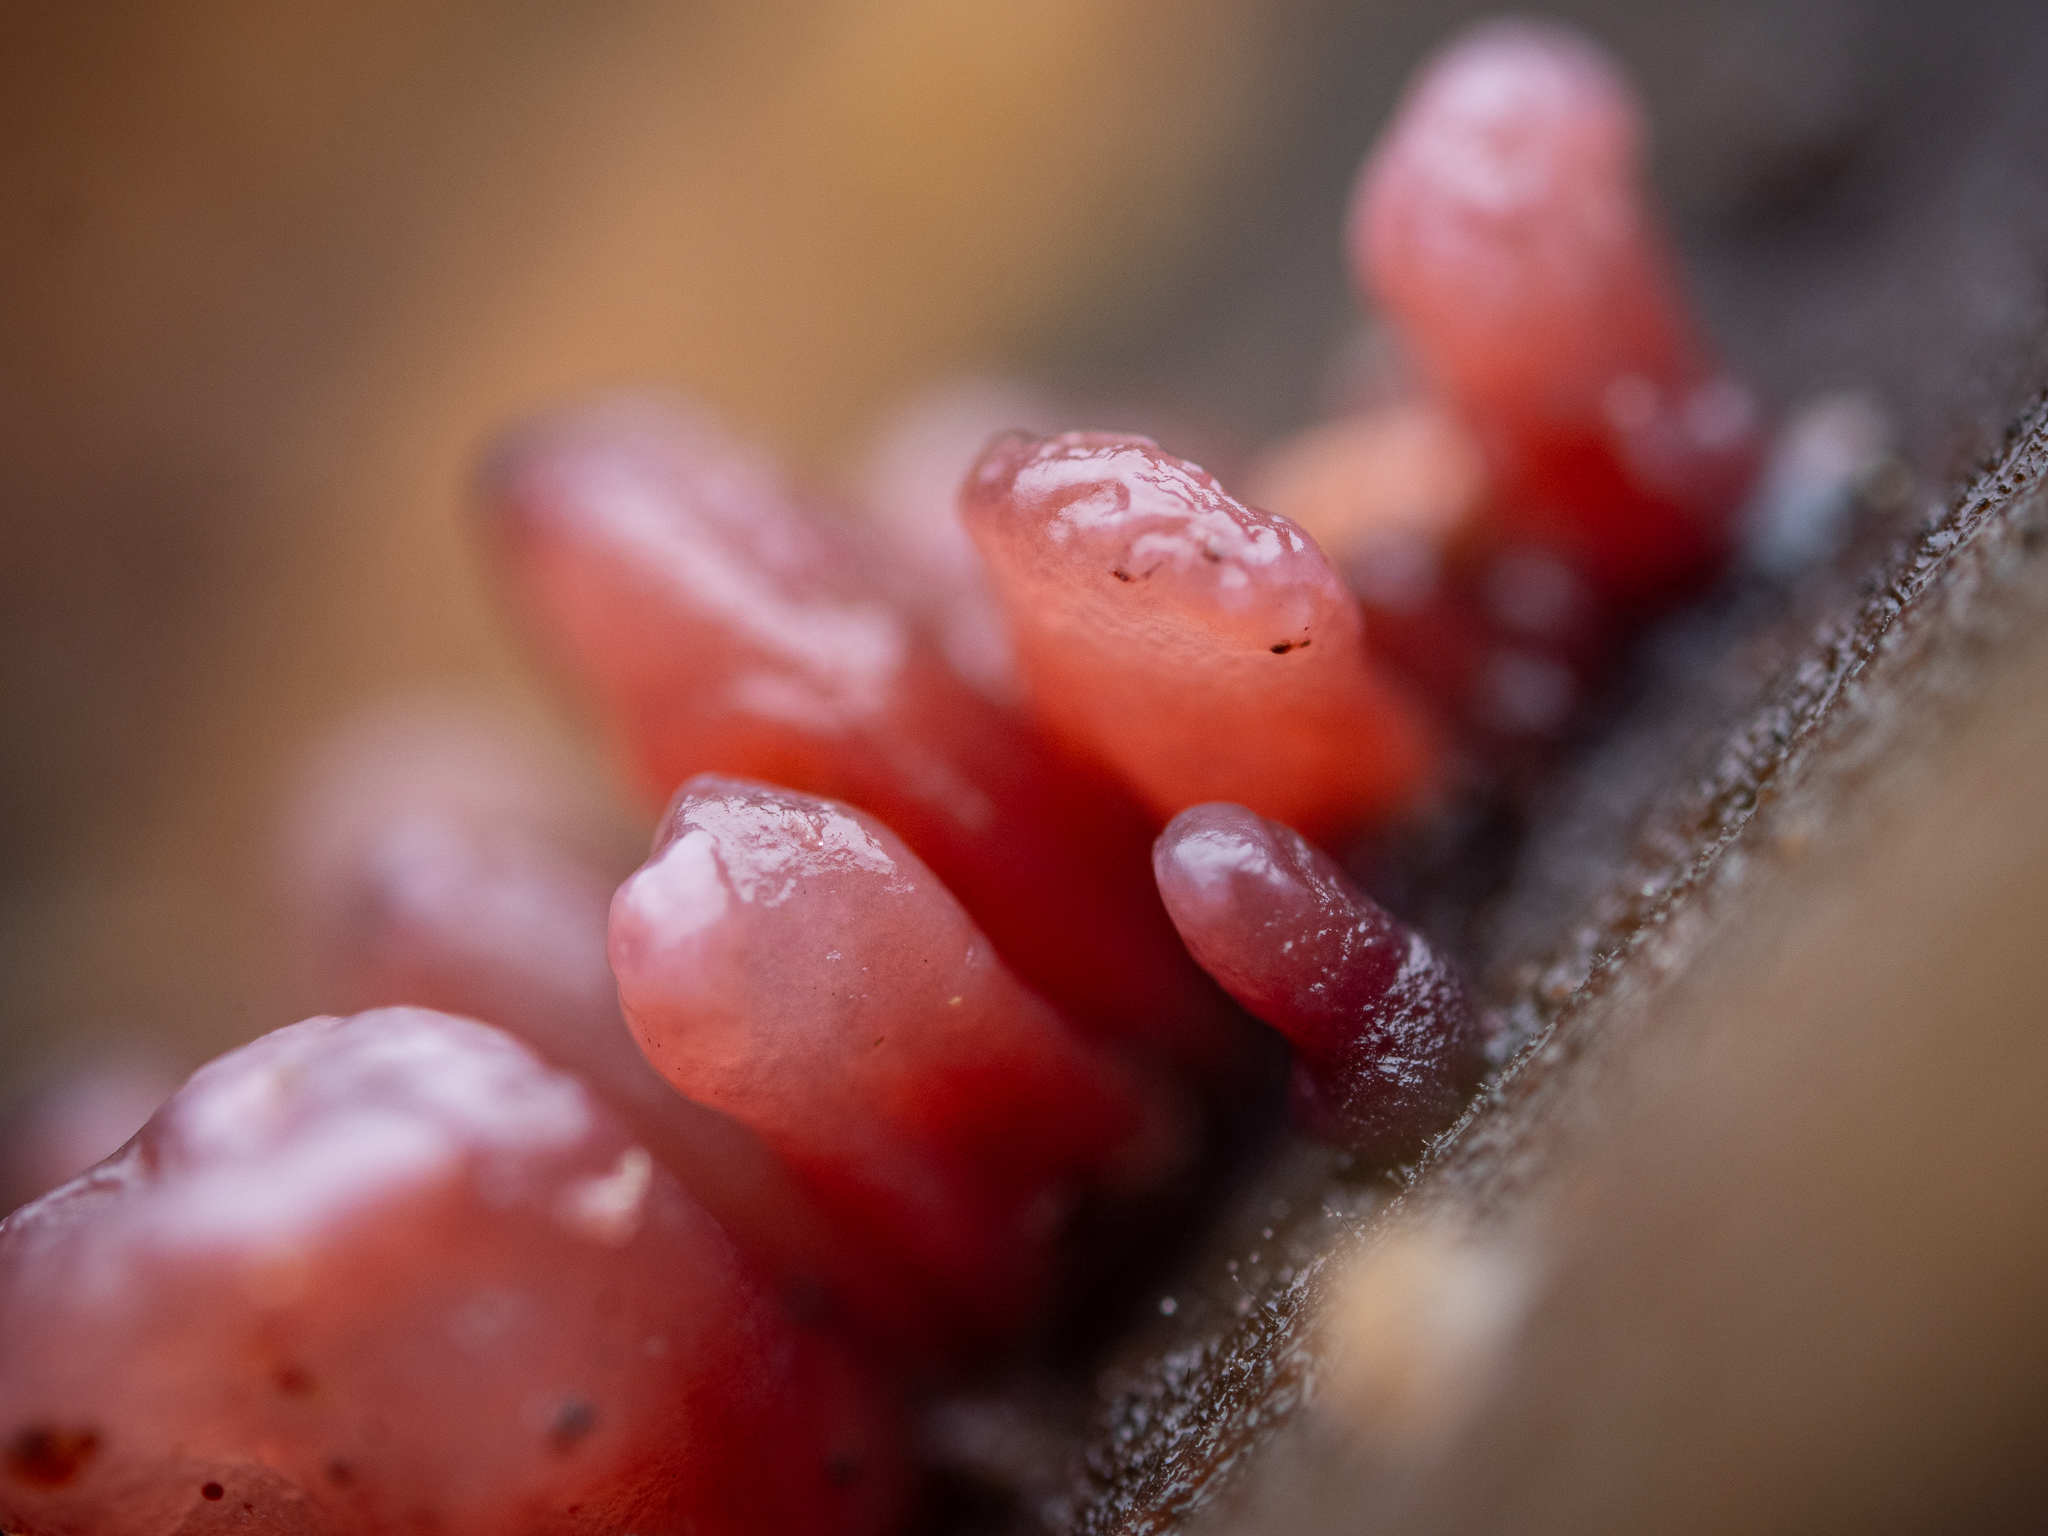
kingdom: Fungi
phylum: Ascomycota
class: Leotiomycetes
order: Helotiales
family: Gelatinodiscaceae
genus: Ascocoryne
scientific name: Ascocoryne sarcoides
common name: Purple jellydisc
